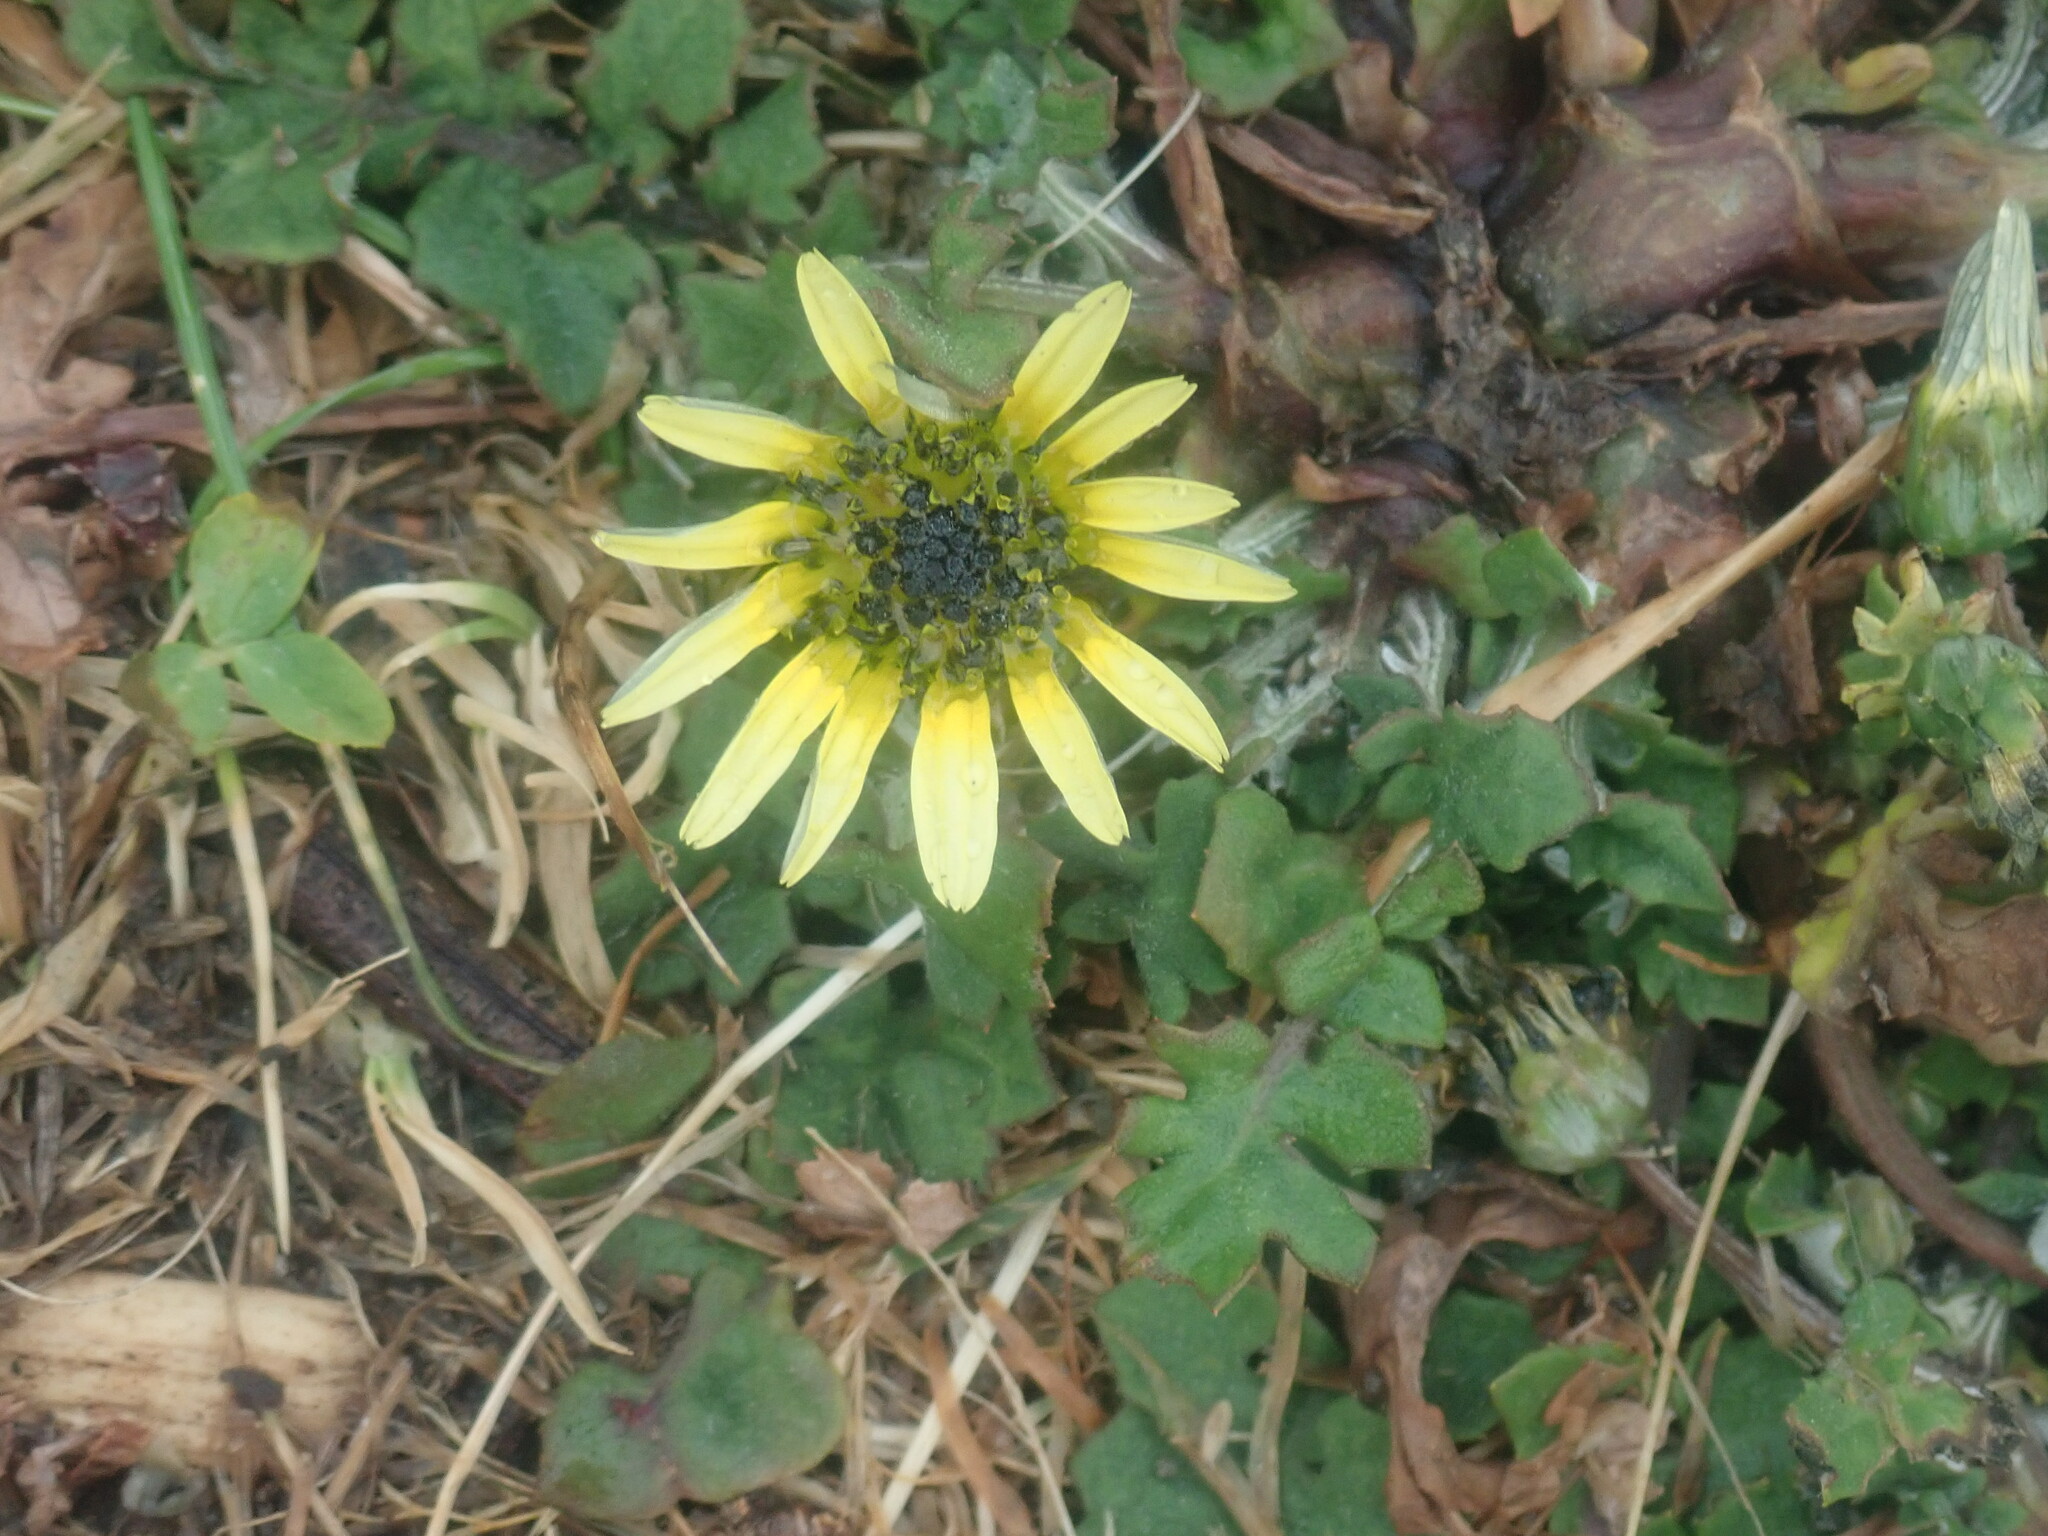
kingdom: Plantae
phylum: Tracheophyta
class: Magnoliopsida
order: Asterales
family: Asteraceae
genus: Arctotheca
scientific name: Arctotheca calendula
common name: Capeweed
